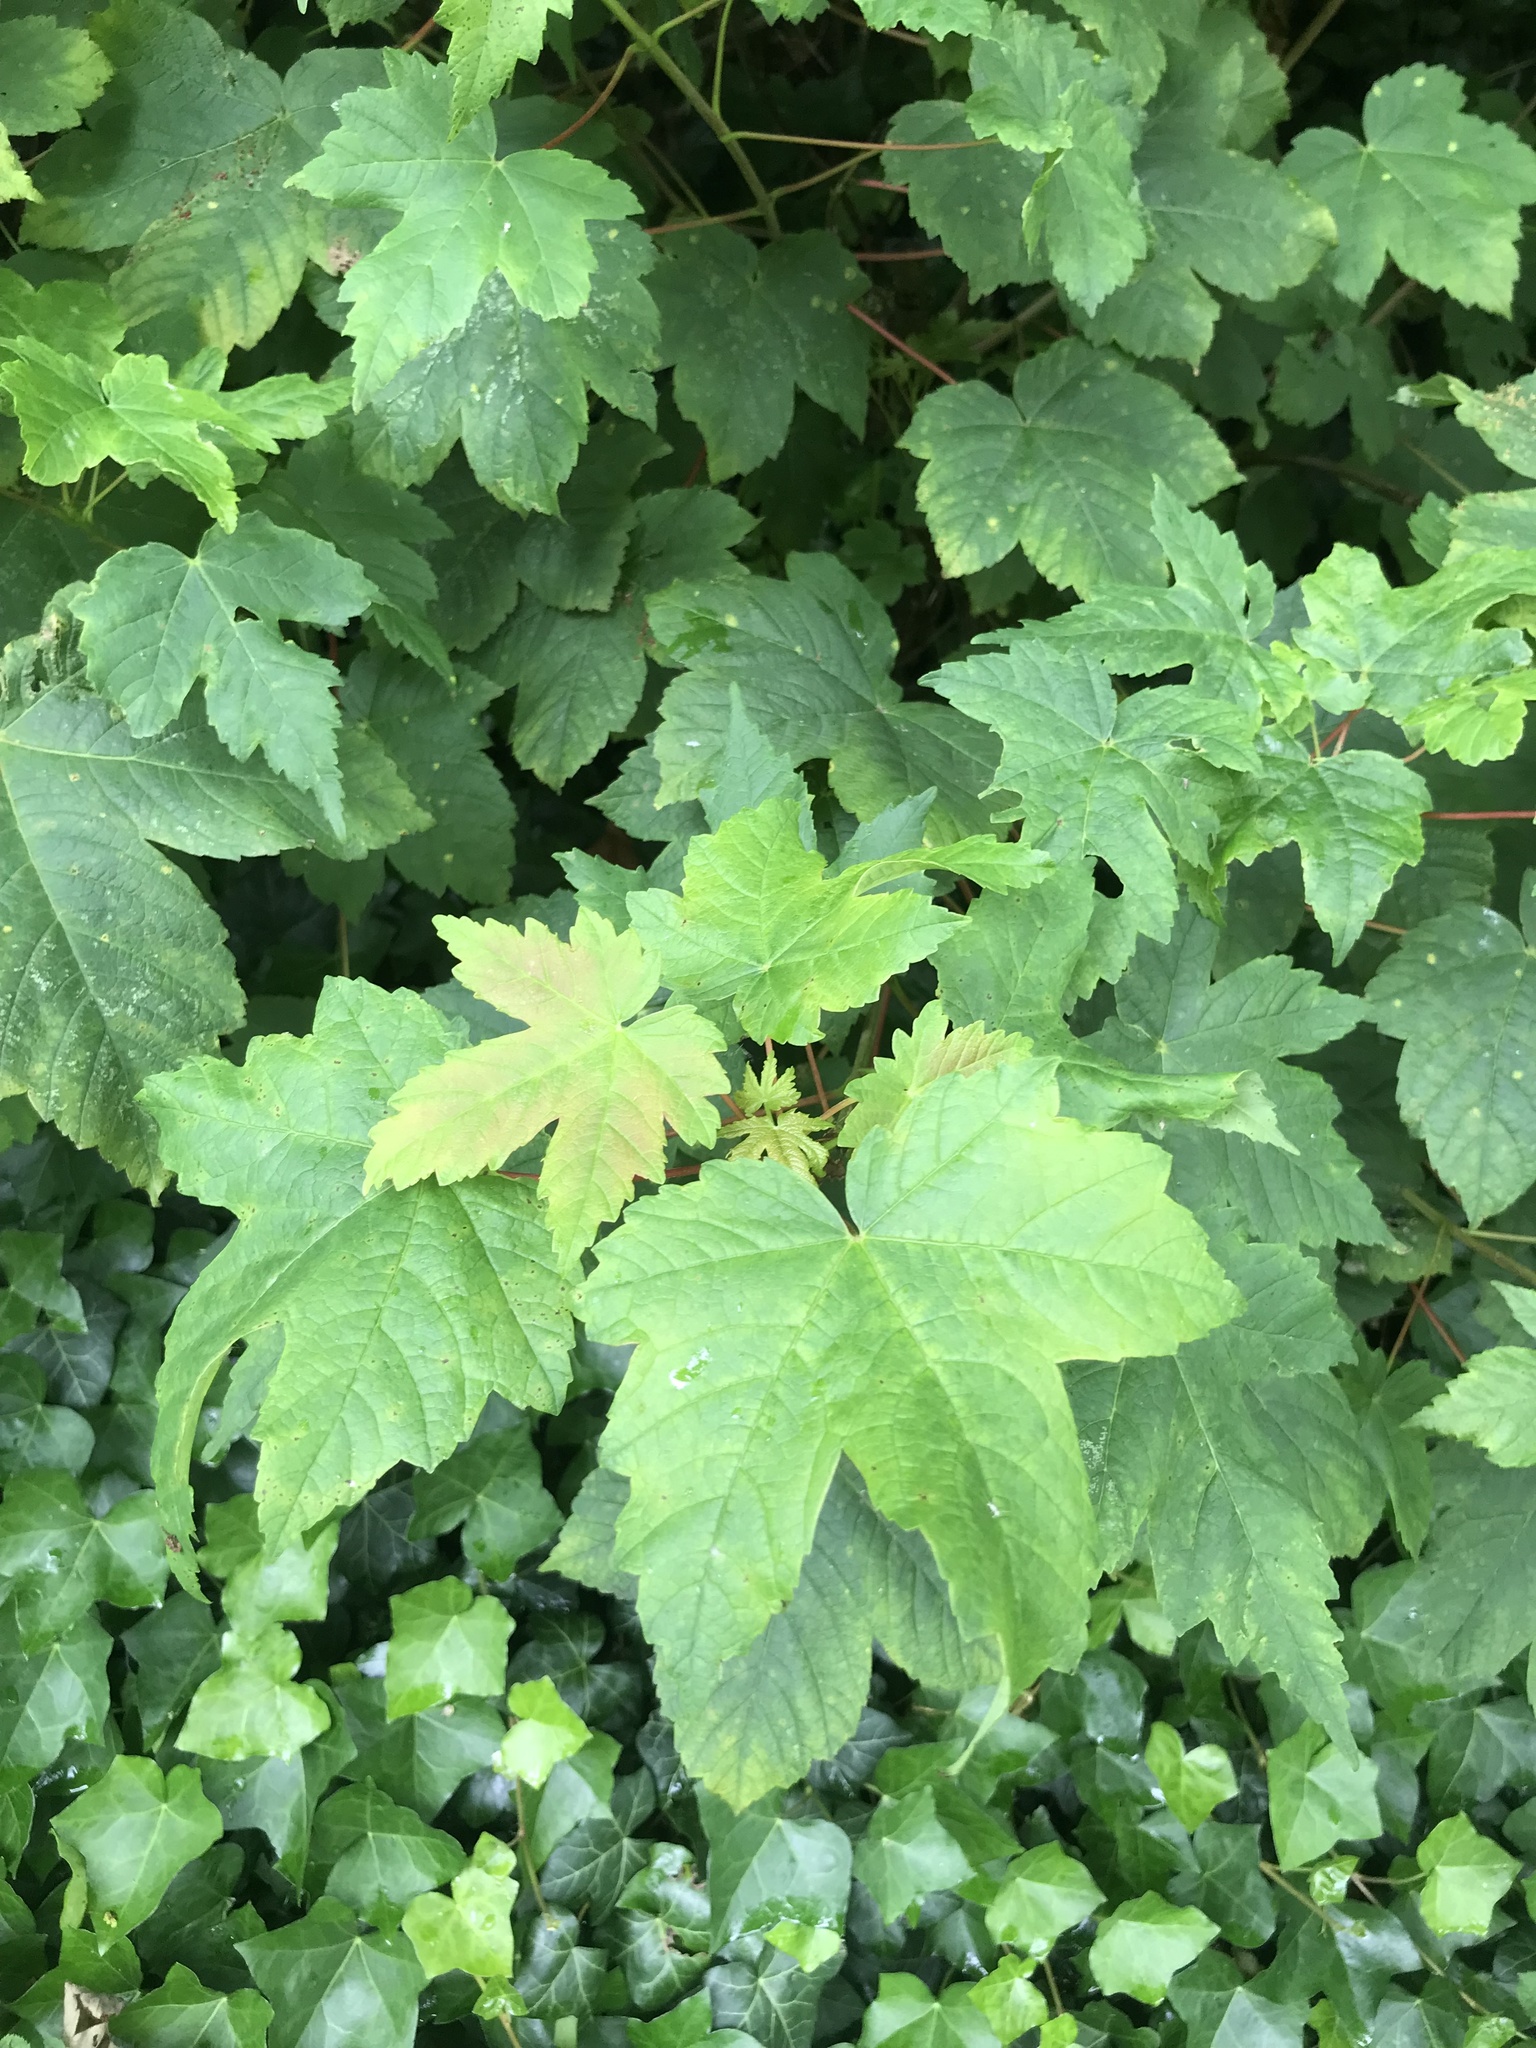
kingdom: Plantae
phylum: Tracheophyta
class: Magnoliopsida
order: Sapindales
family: Sapindaceae
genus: Acer
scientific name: Acer pseudoplatanus
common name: Sycamore
